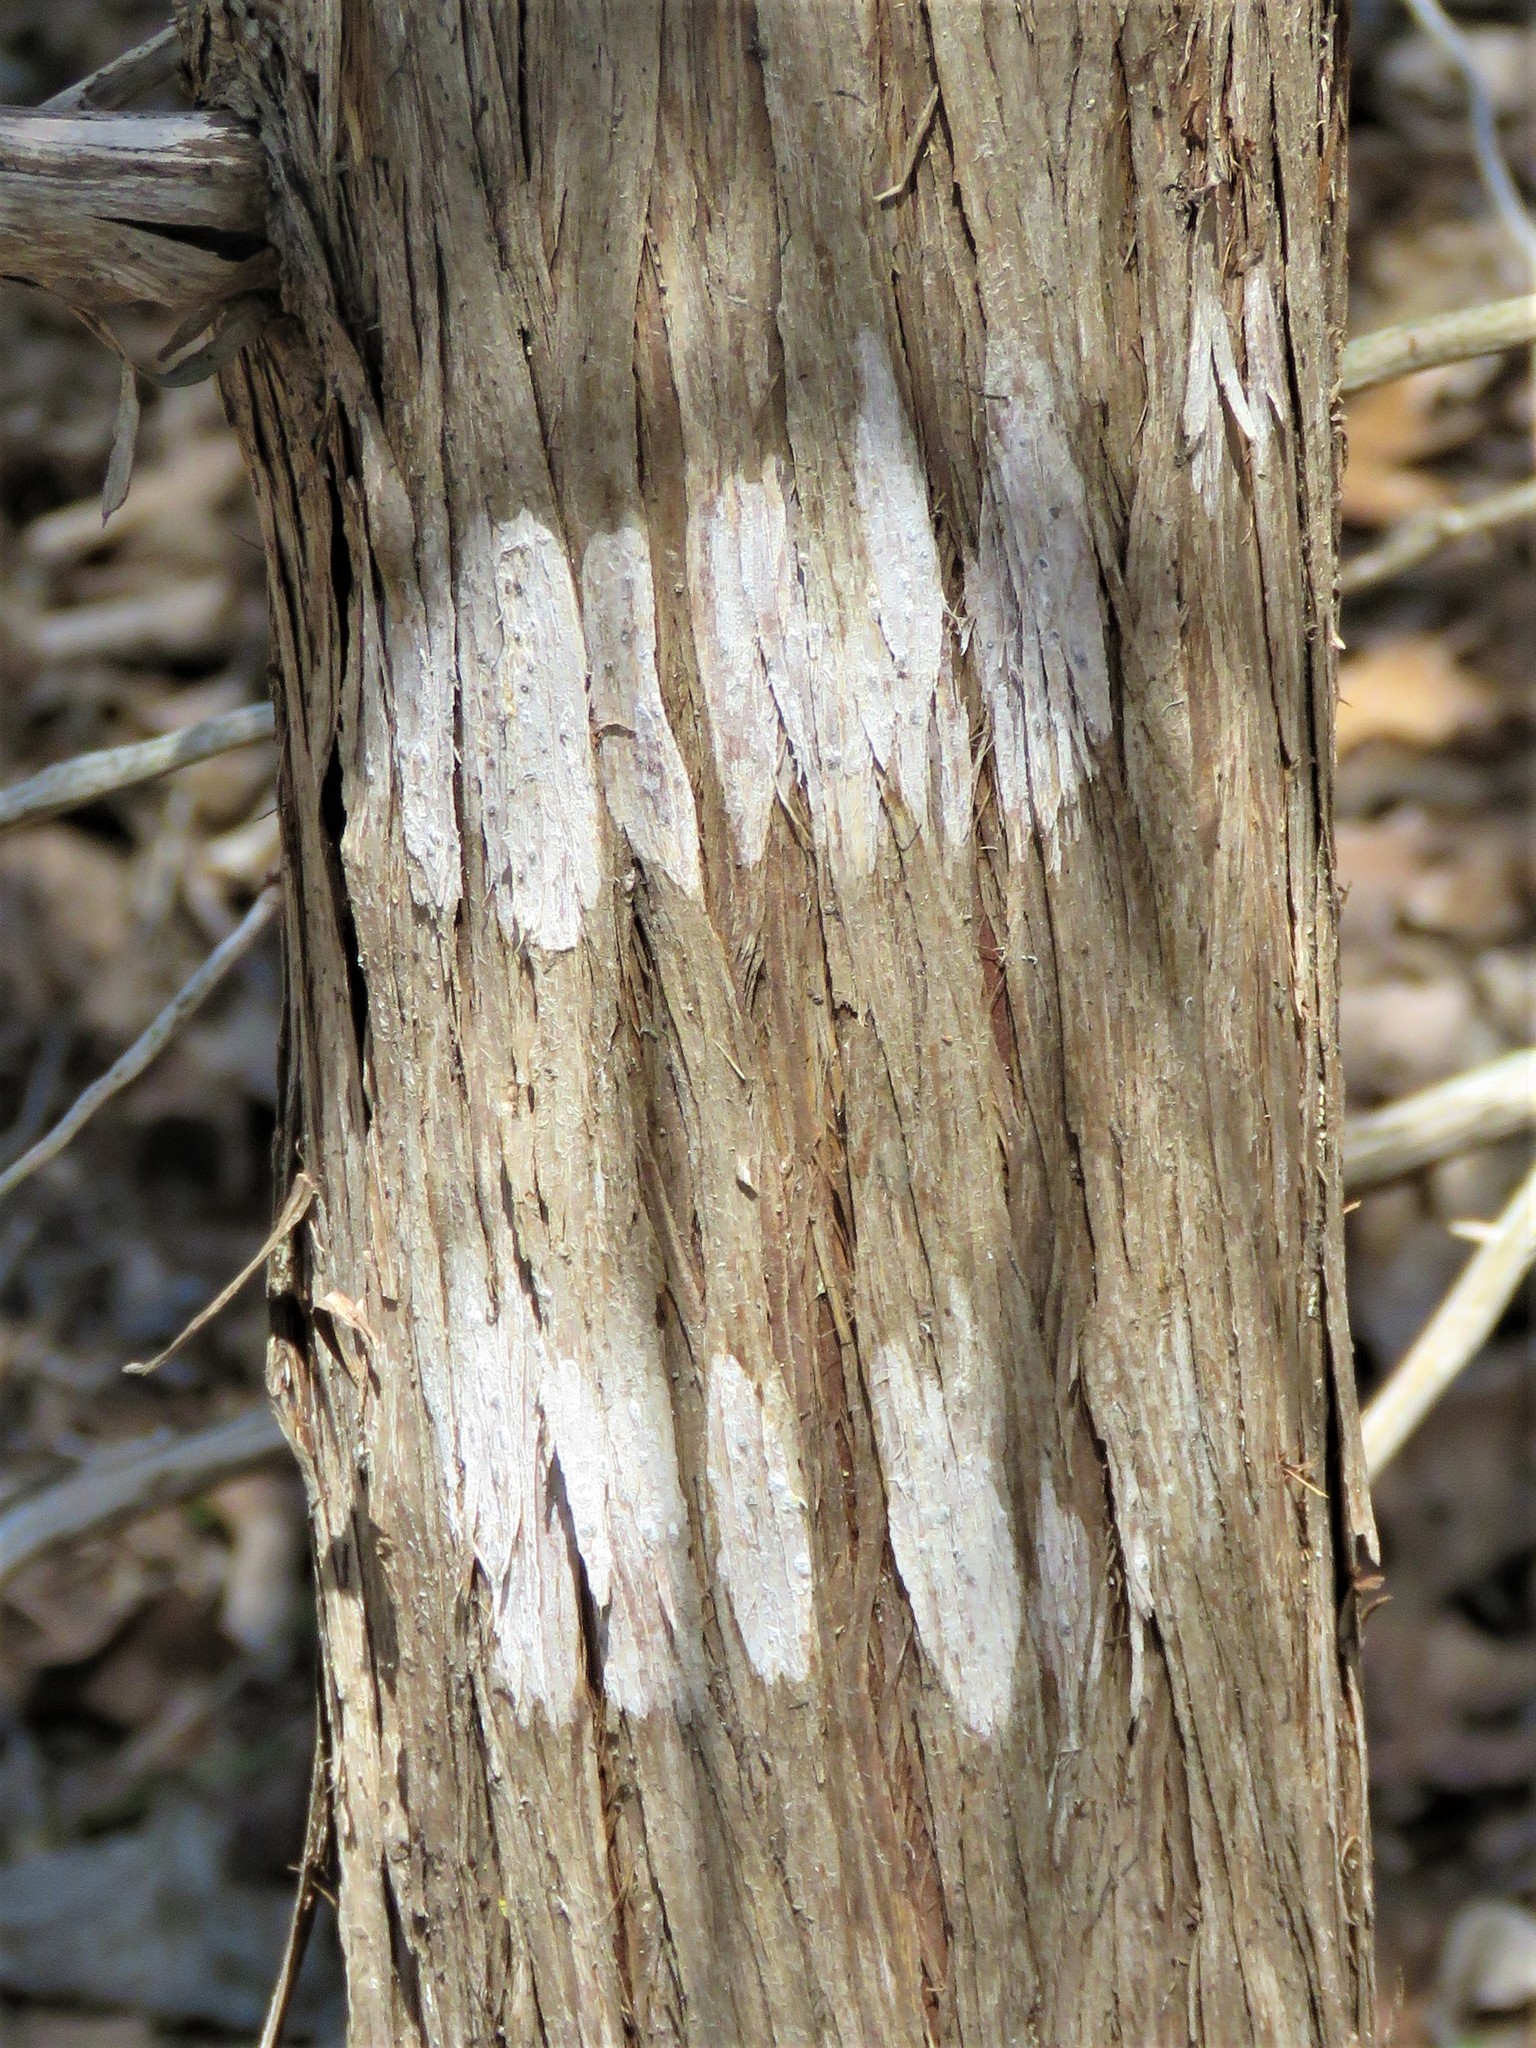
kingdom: Fungi
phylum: Ascomycota
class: Lecanoromycetes
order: Ostropales
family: Stictidaceae
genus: Robergea
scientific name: Robergea
